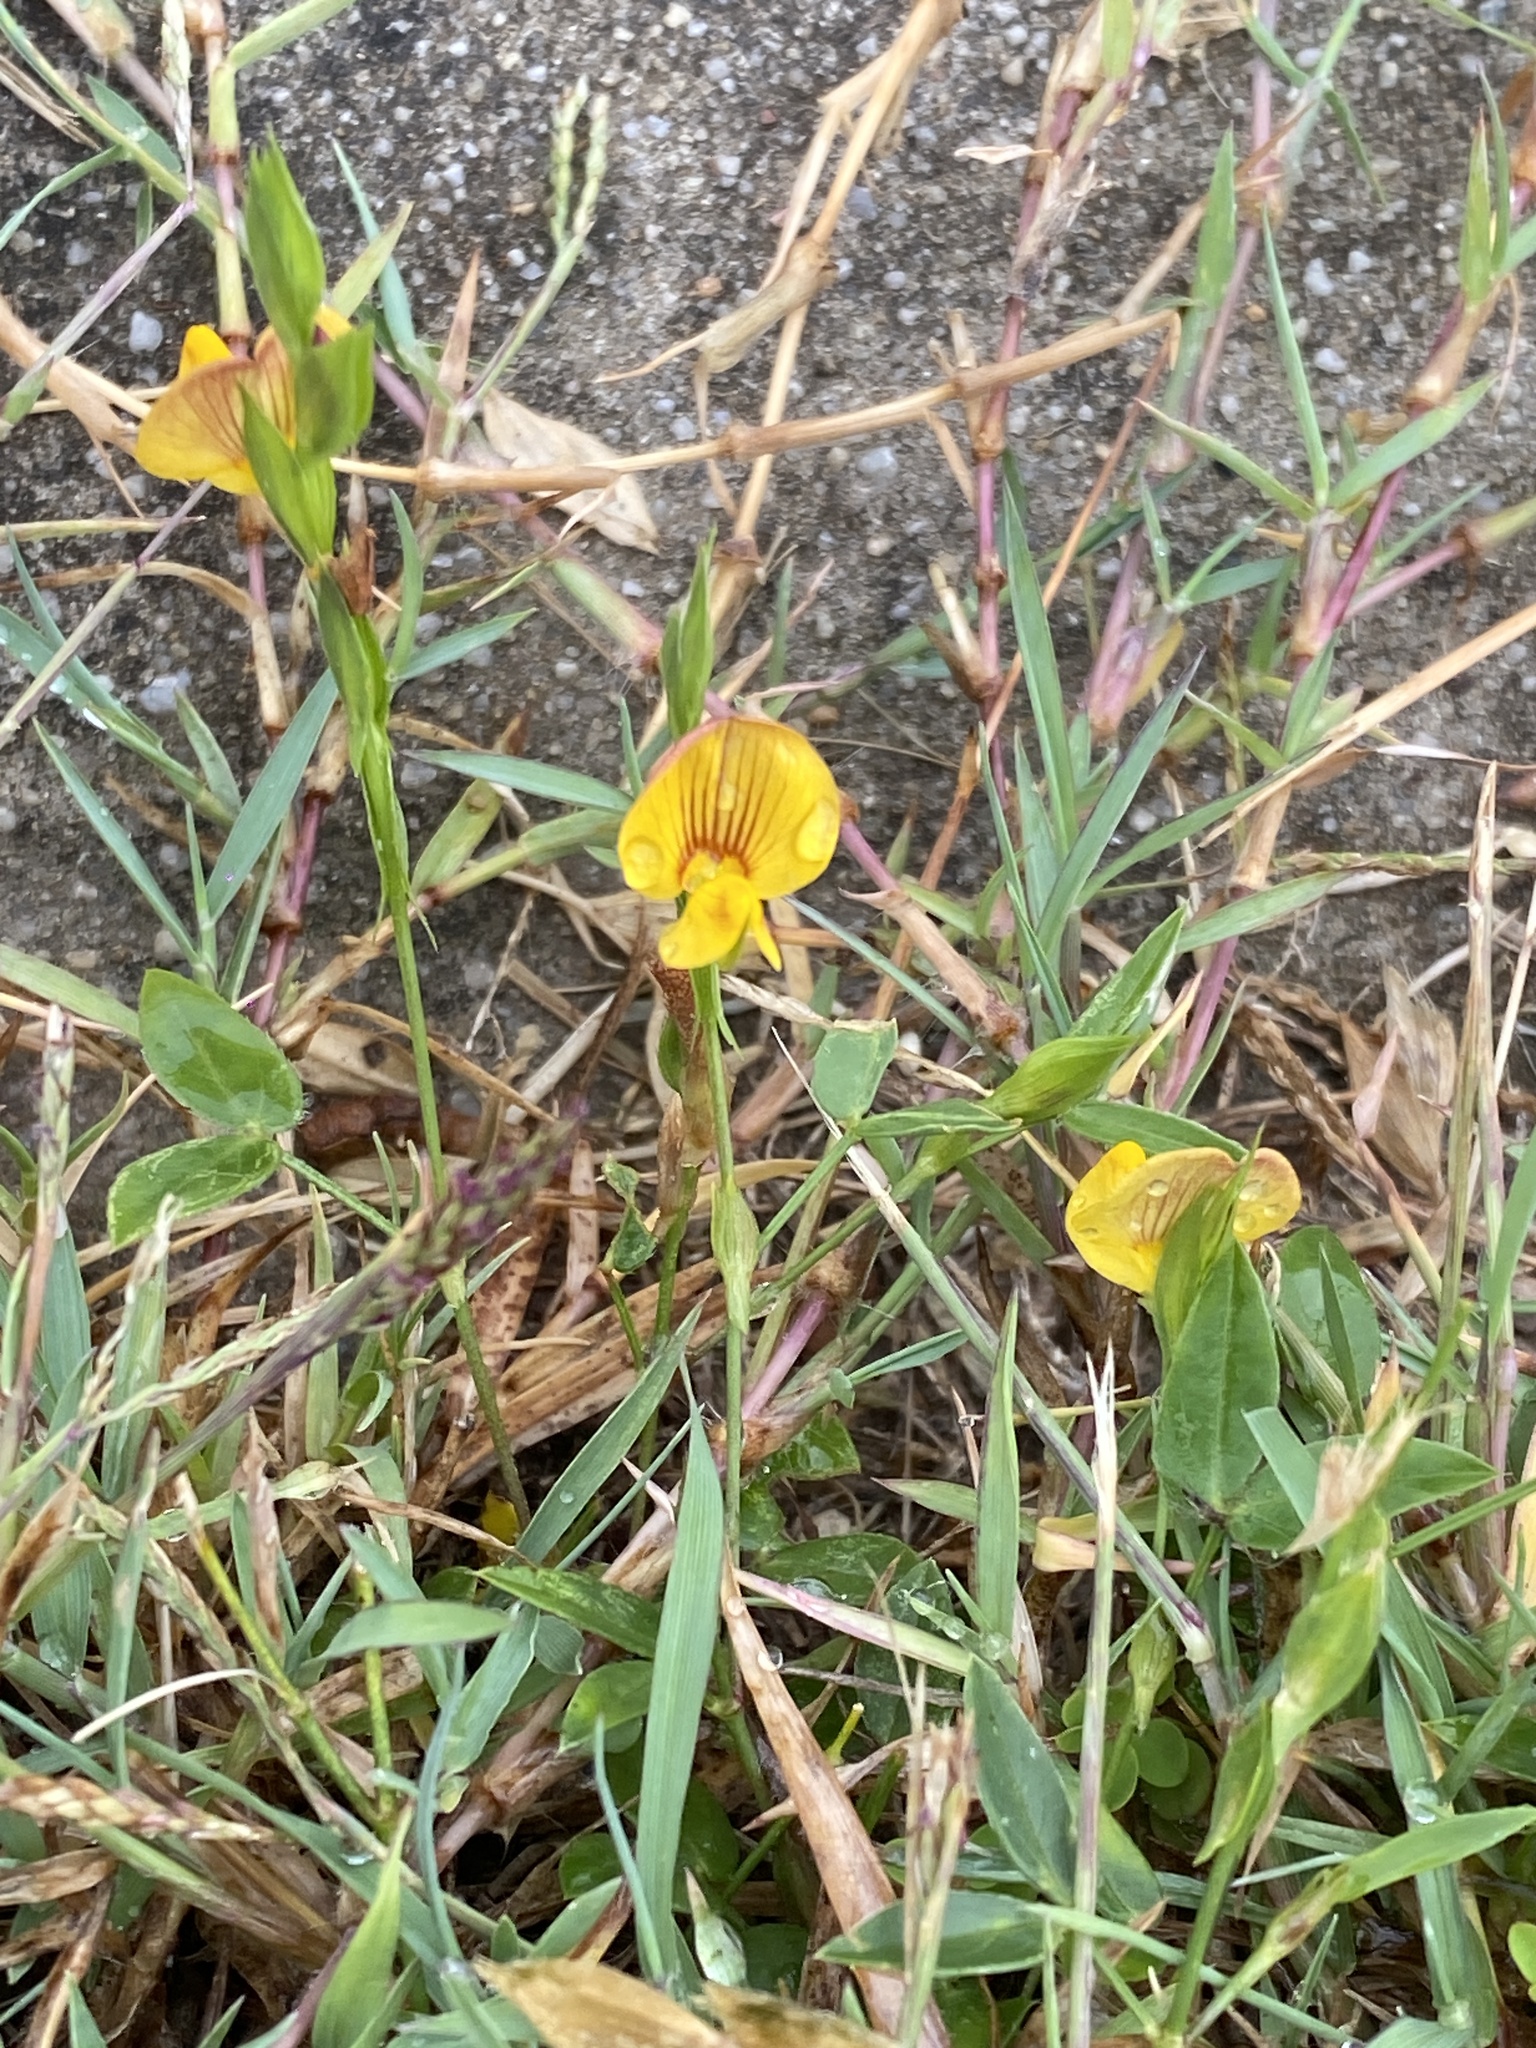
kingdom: Plantae
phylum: Tracheophyta
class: Magnoliopsida
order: Fabales
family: Fabaceae
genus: Zornia
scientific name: Zornia dyctiocarpa
